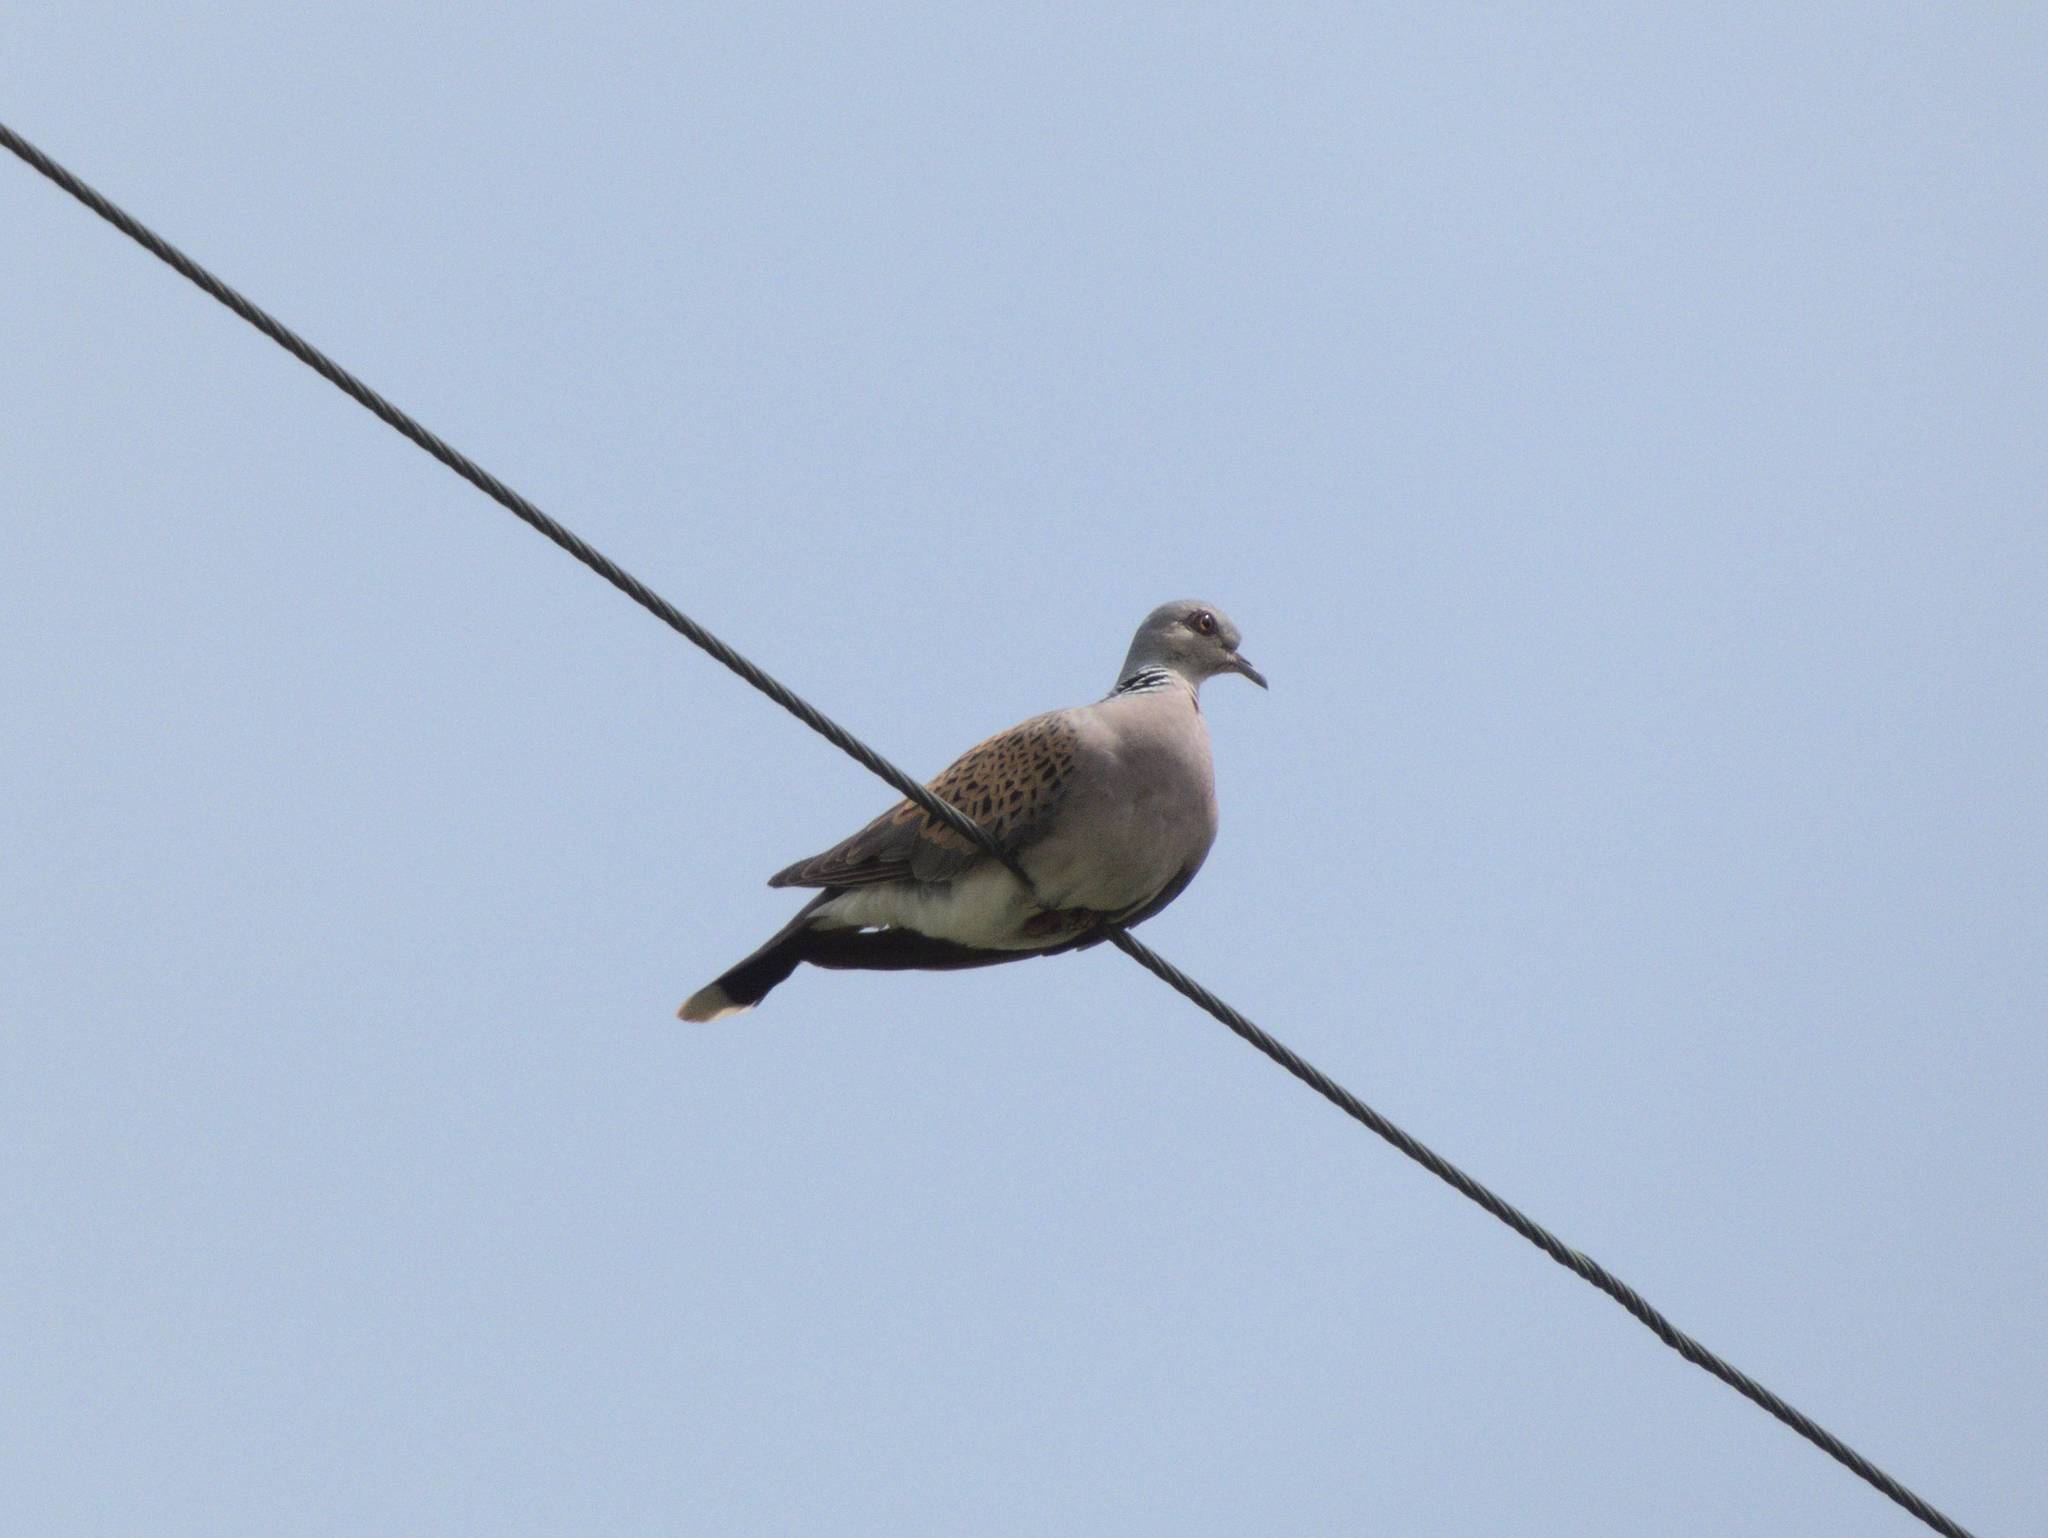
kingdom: Animalia
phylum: Chordata
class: Aves
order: Columbiformes
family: Columbidae
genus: Streptopelia
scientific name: Streptopelia turtur
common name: European turtle dove
